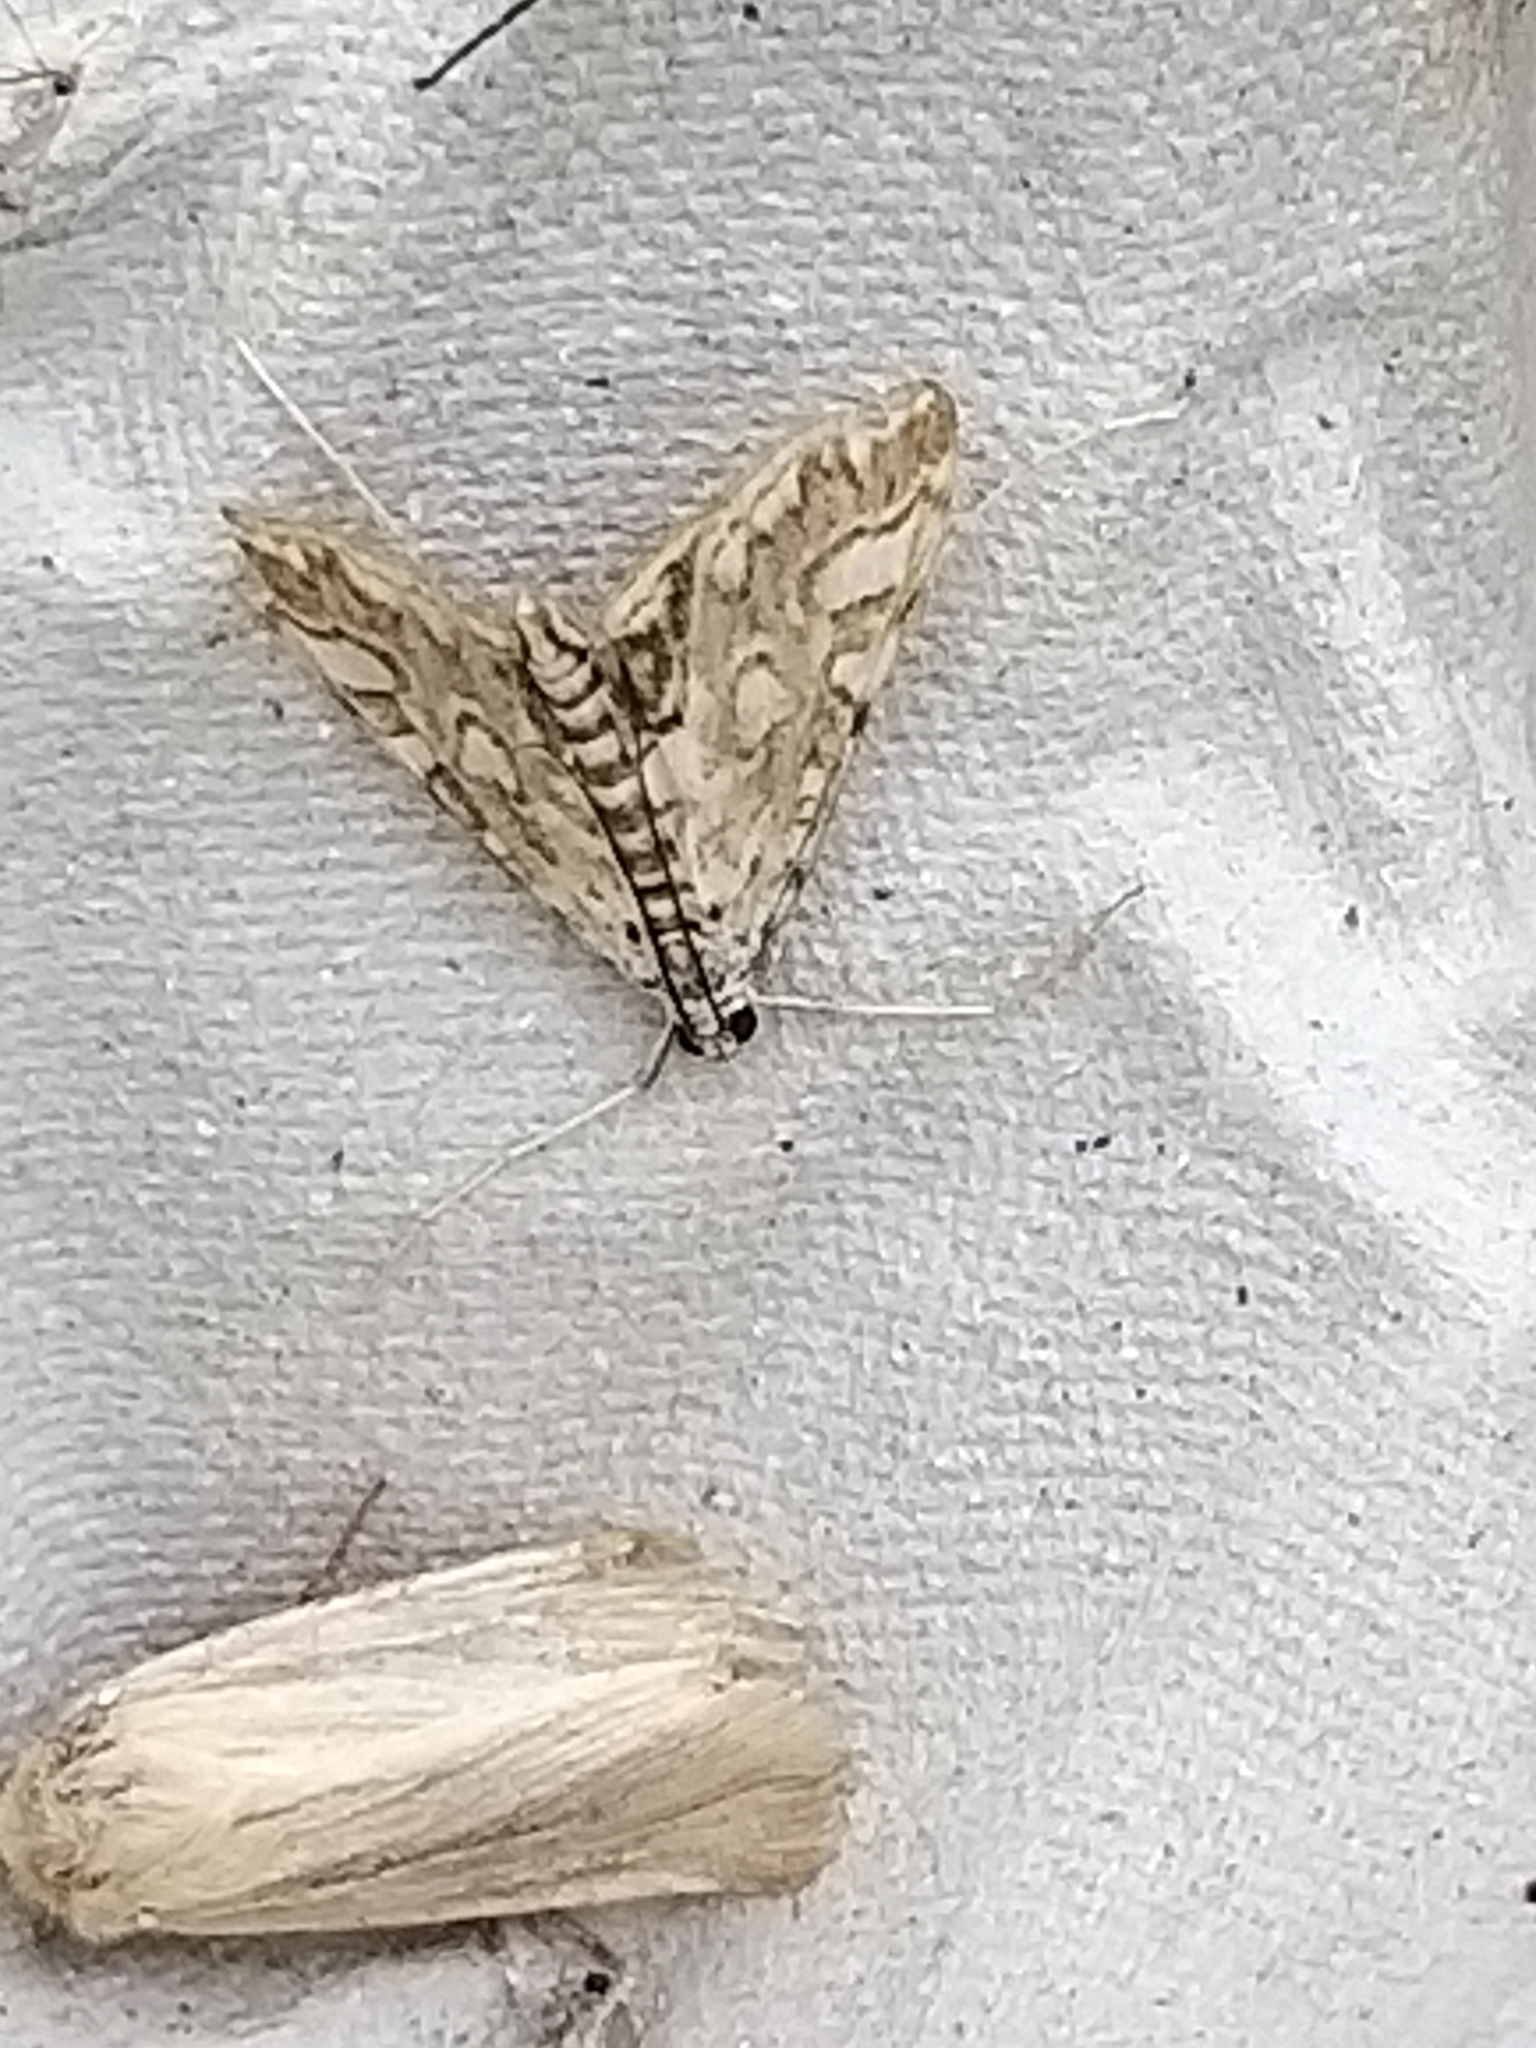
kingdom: Animalia
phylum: Arthropoda
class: Insecta
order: Lepidoptera
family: Crambidae
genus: Elophila
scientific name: Elophila nymphaeata
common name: Brown china-mark
